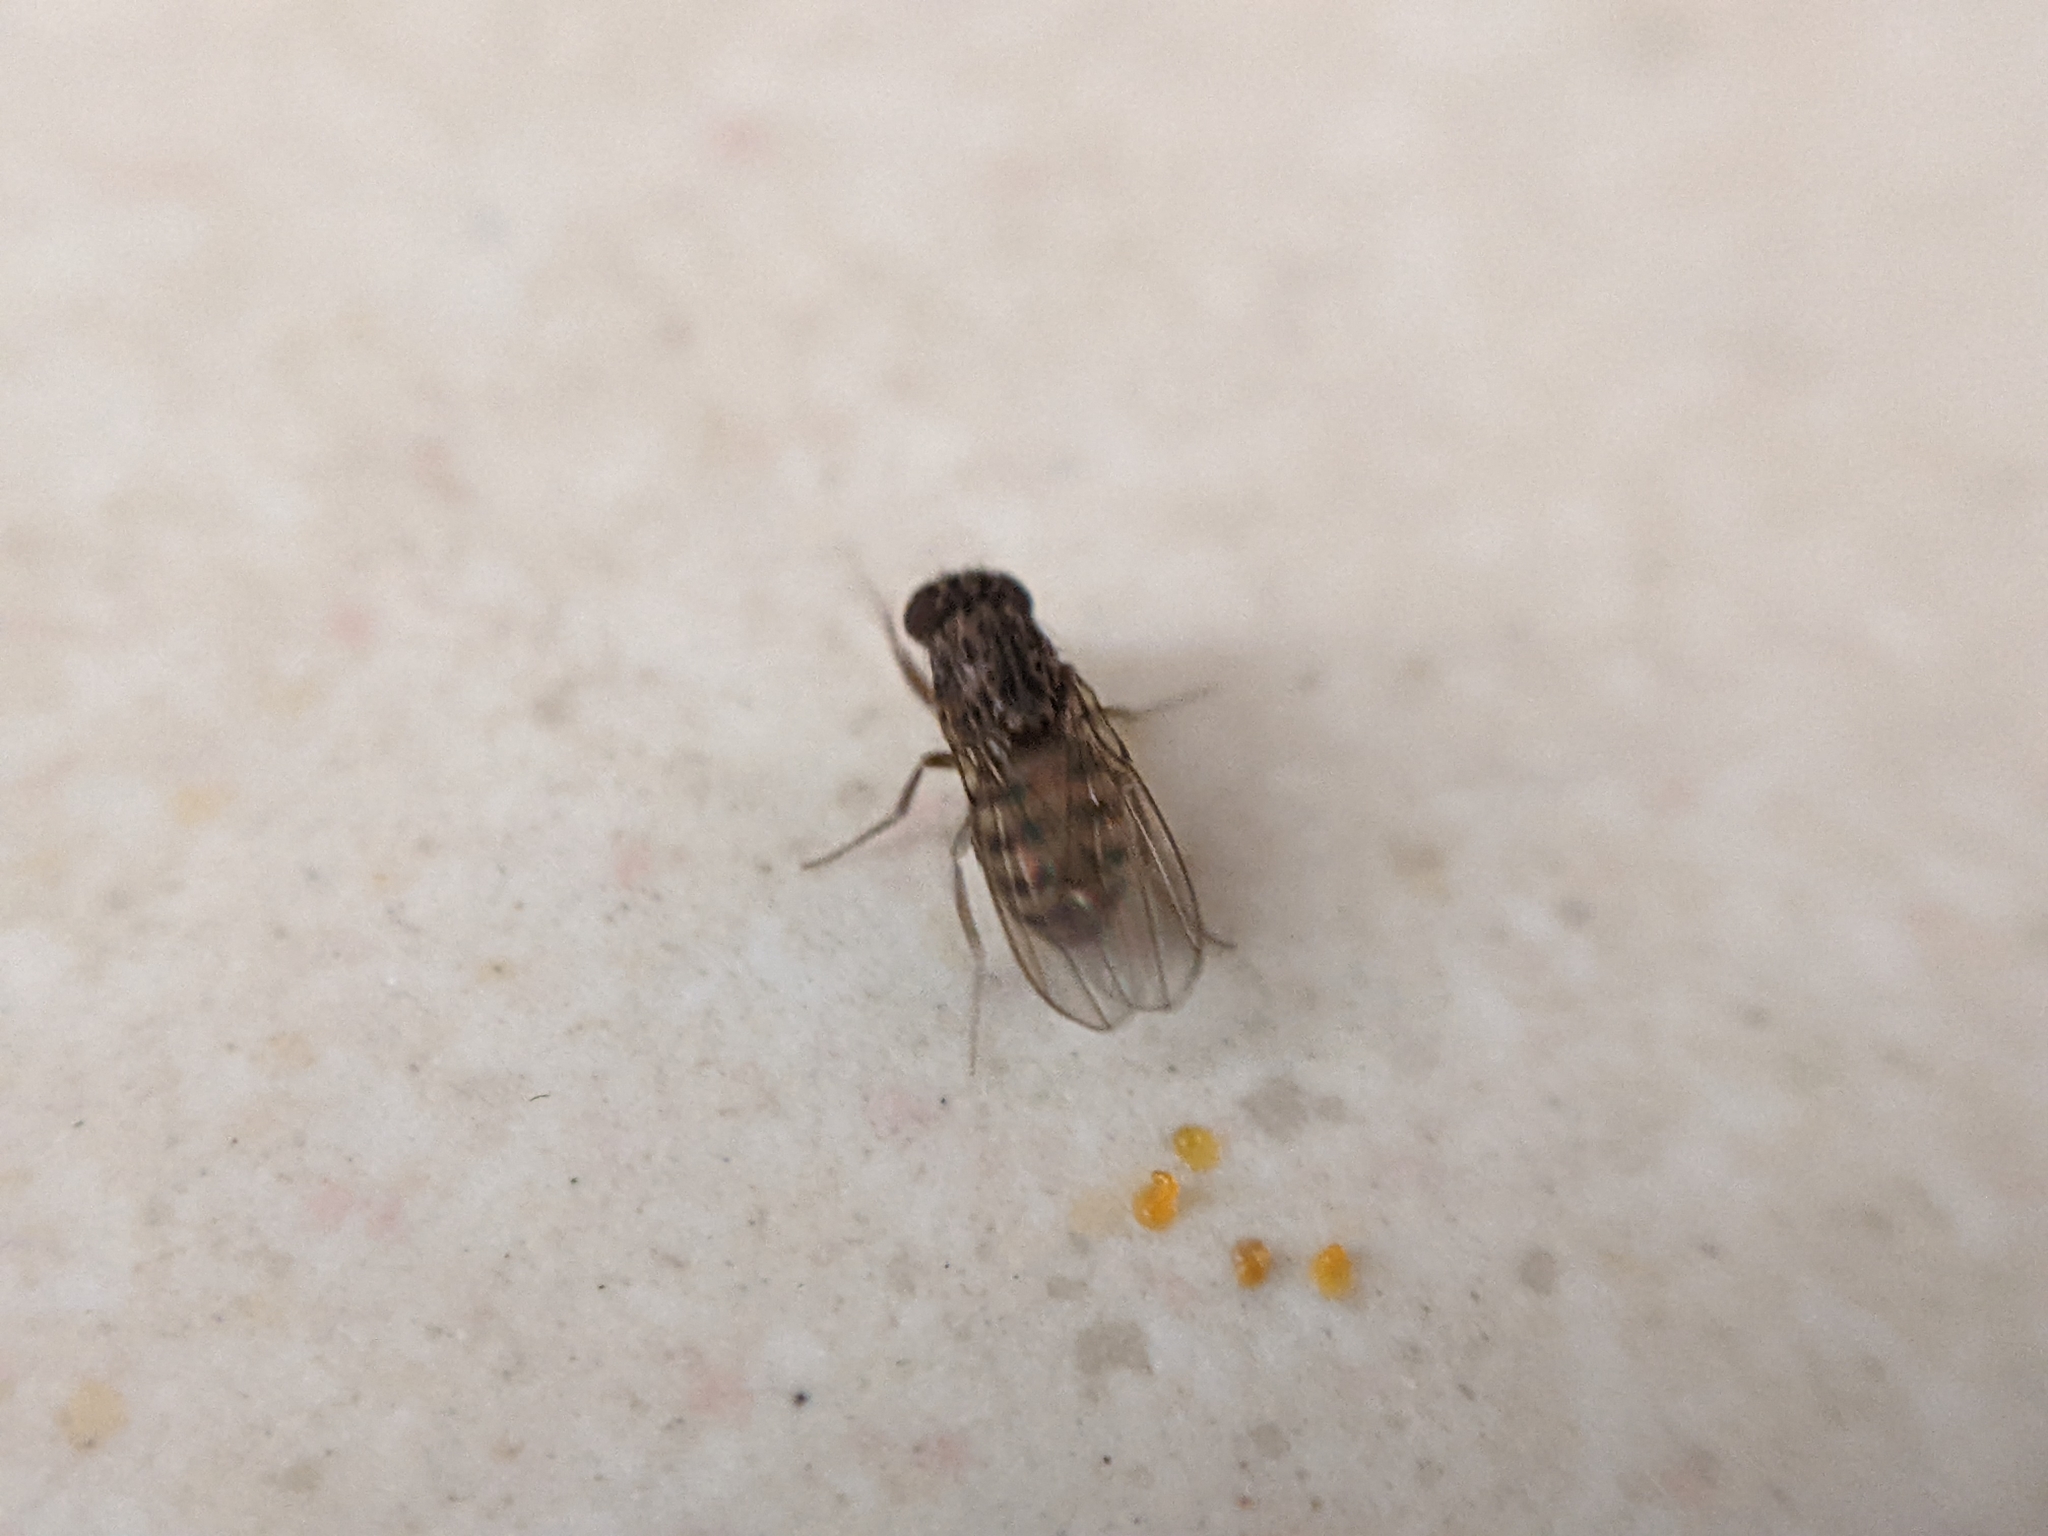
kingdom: Animalia
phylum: Arthropoda
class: Insecta
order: Diptera
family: Drosophilidae
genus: Drosophila
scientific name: Drosophila repleta
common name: Pomace fly
